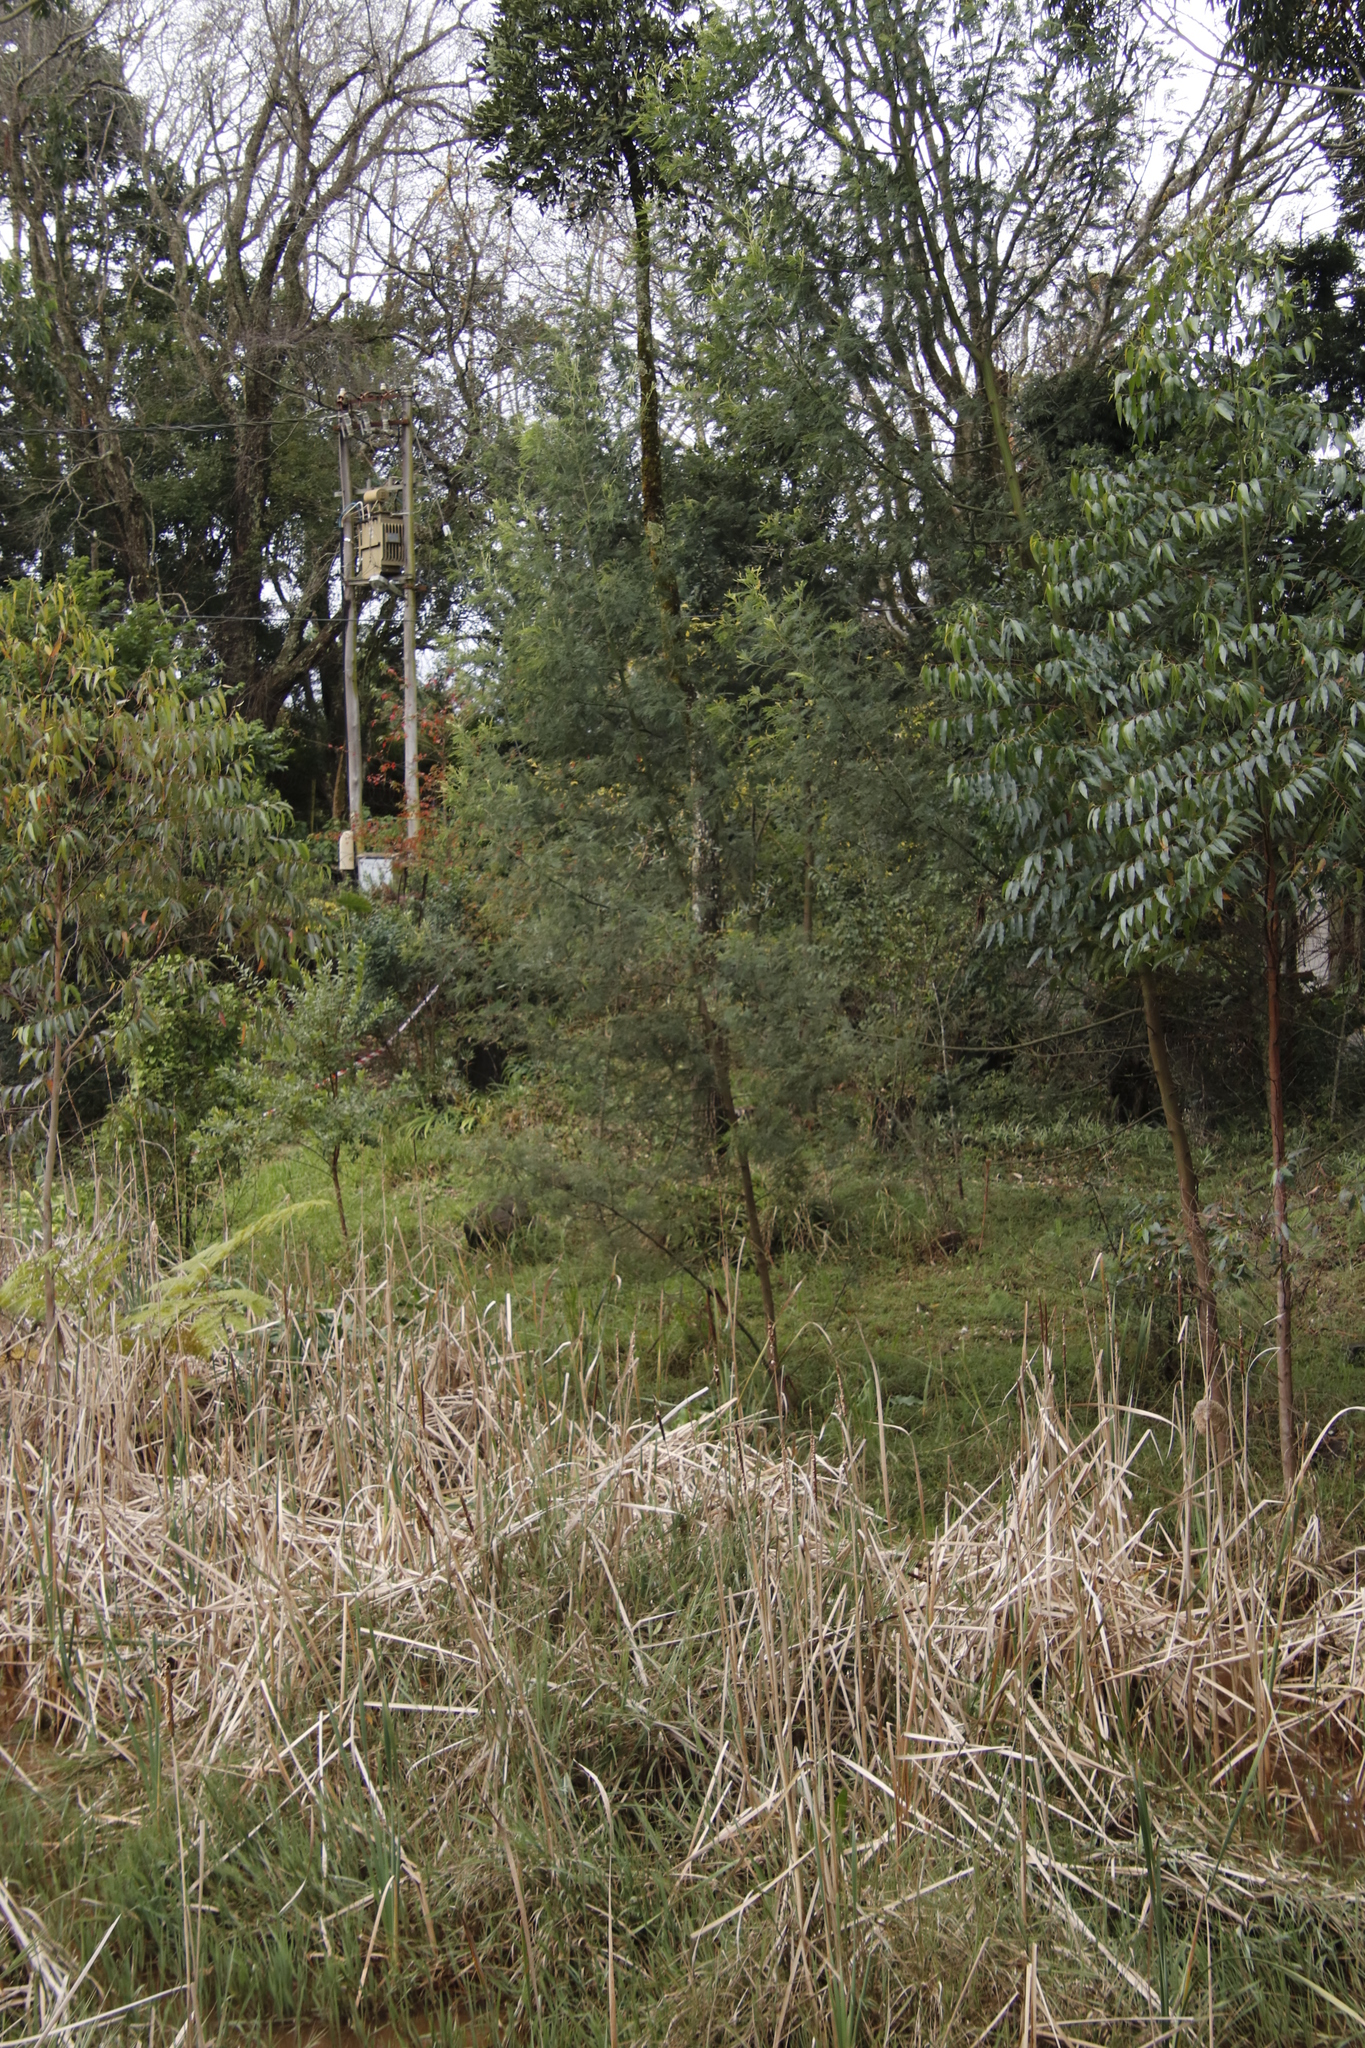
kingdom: Plantae
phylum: Tracheophyta
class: Magnoliopsida
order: Fabales
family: Fabaceae
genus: Acacia
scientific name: Acacia mearnsii
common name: Black wattle
